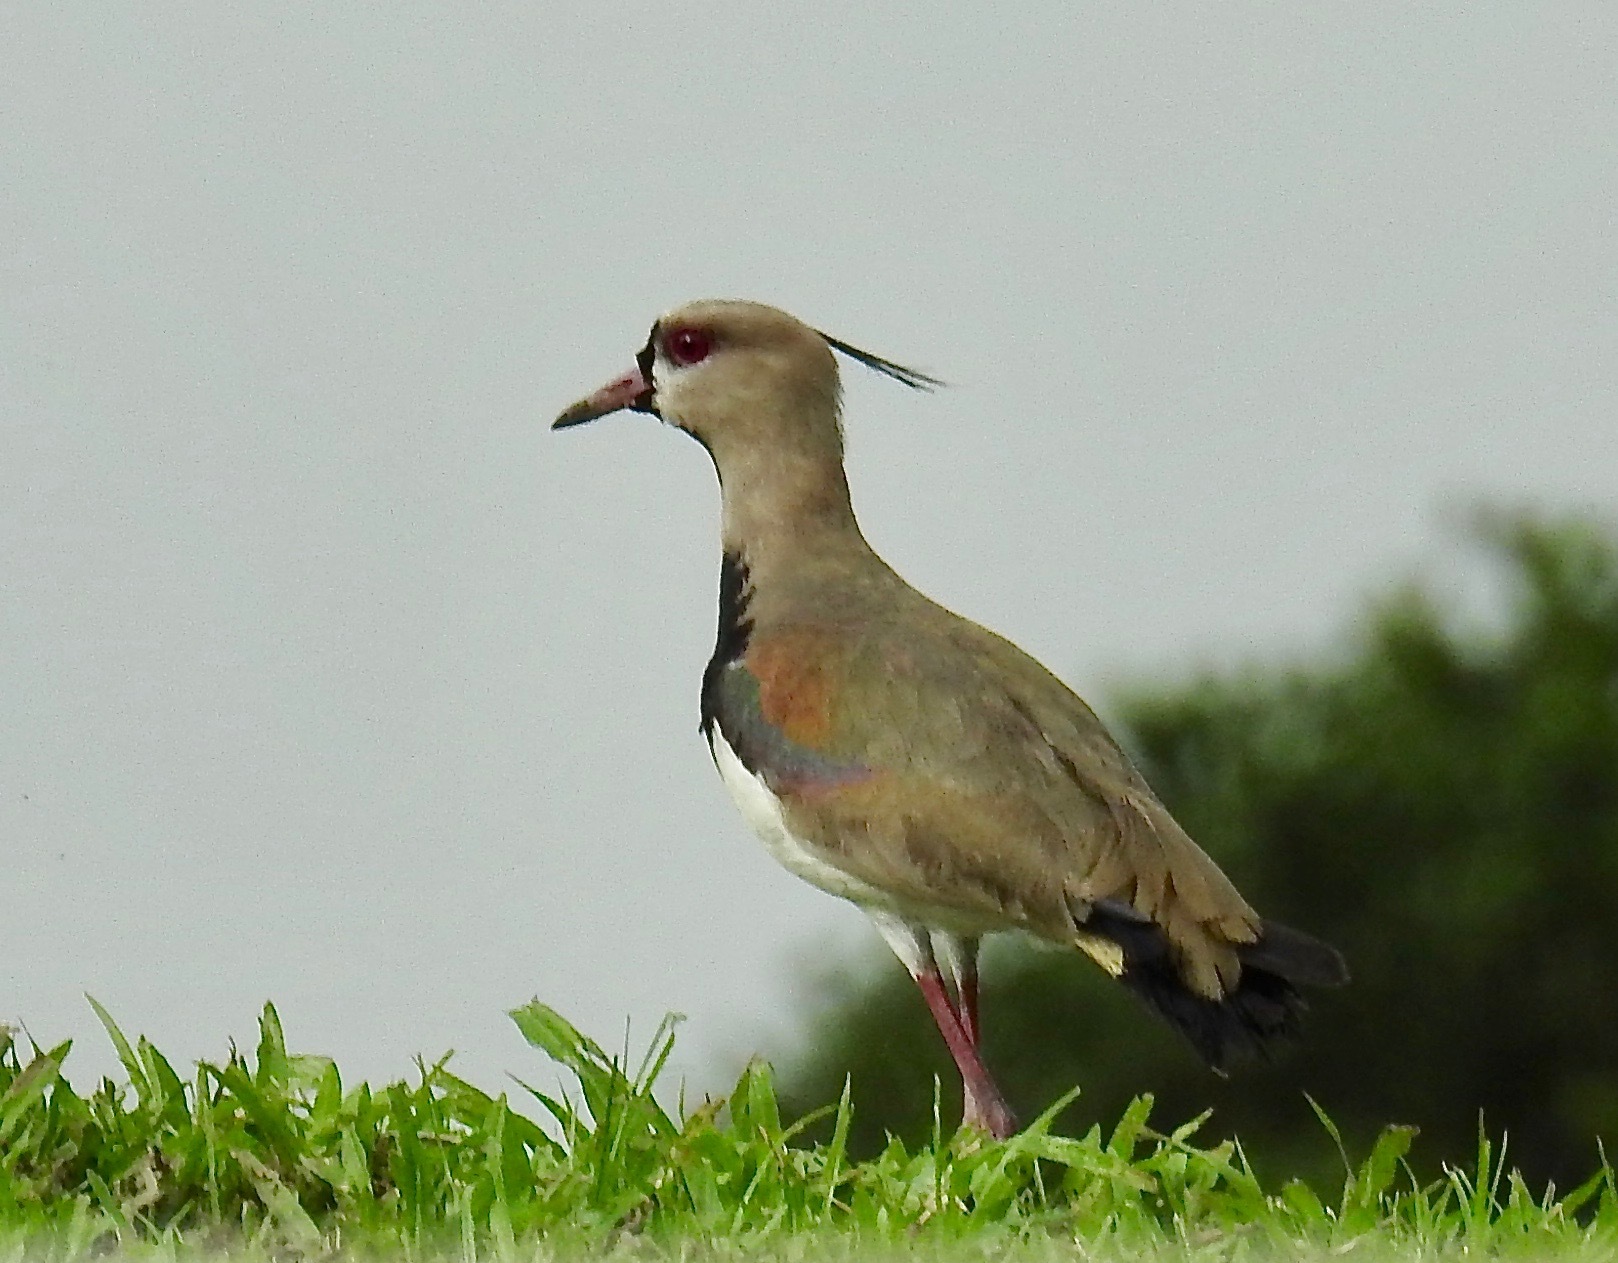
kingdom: Animalia
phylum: Chordata
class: Aves
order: Charadriiformes
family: Charadriidae
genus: Vanellus
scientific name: Vanellus chilensis
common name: Southern lapwing
